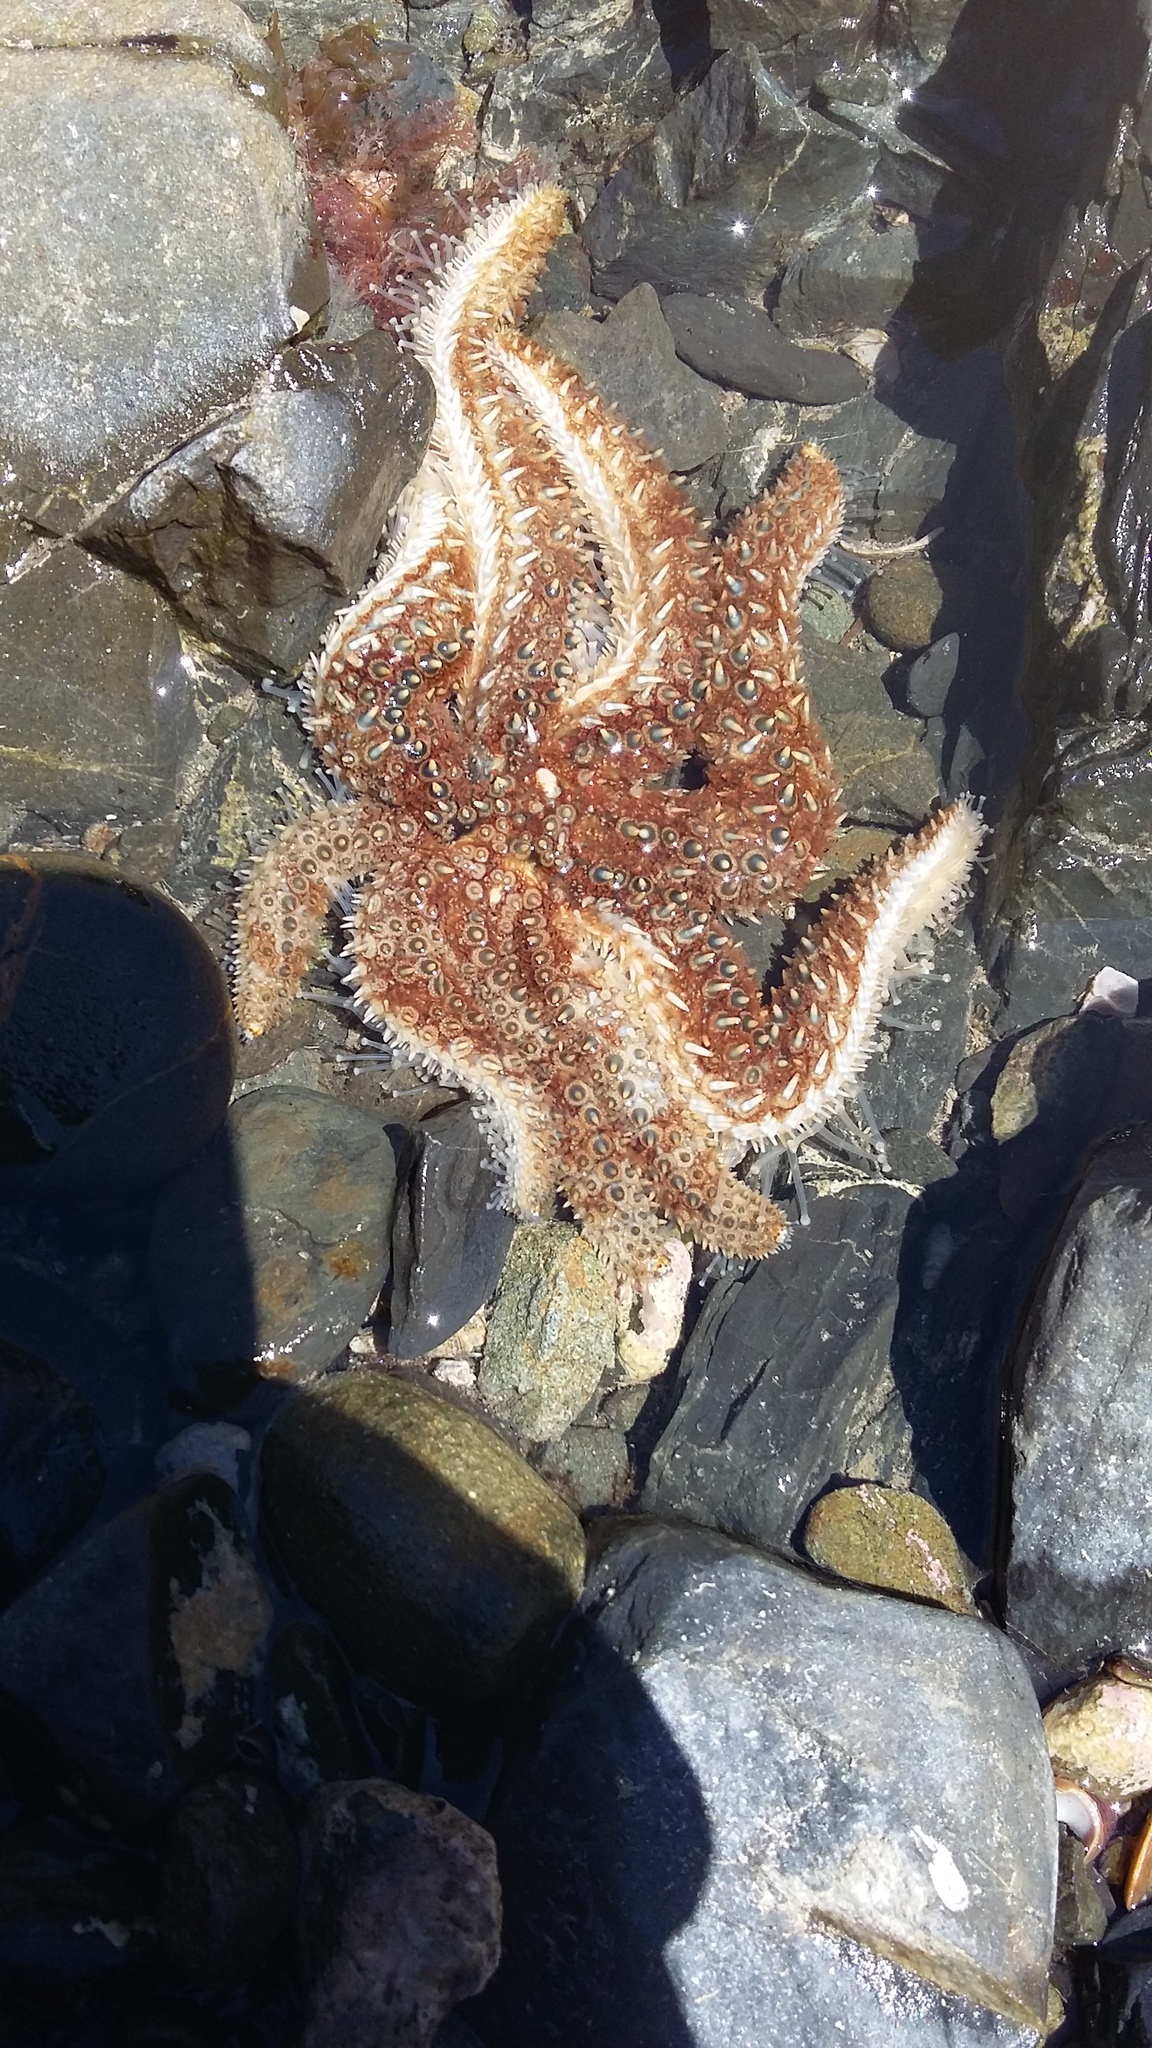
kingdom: Animalia
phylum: Echinodermata
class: Asteroidea
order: Forcipulatida
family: Asteriidae
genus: Coscinasterias
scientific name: Coscinasterias muricata
